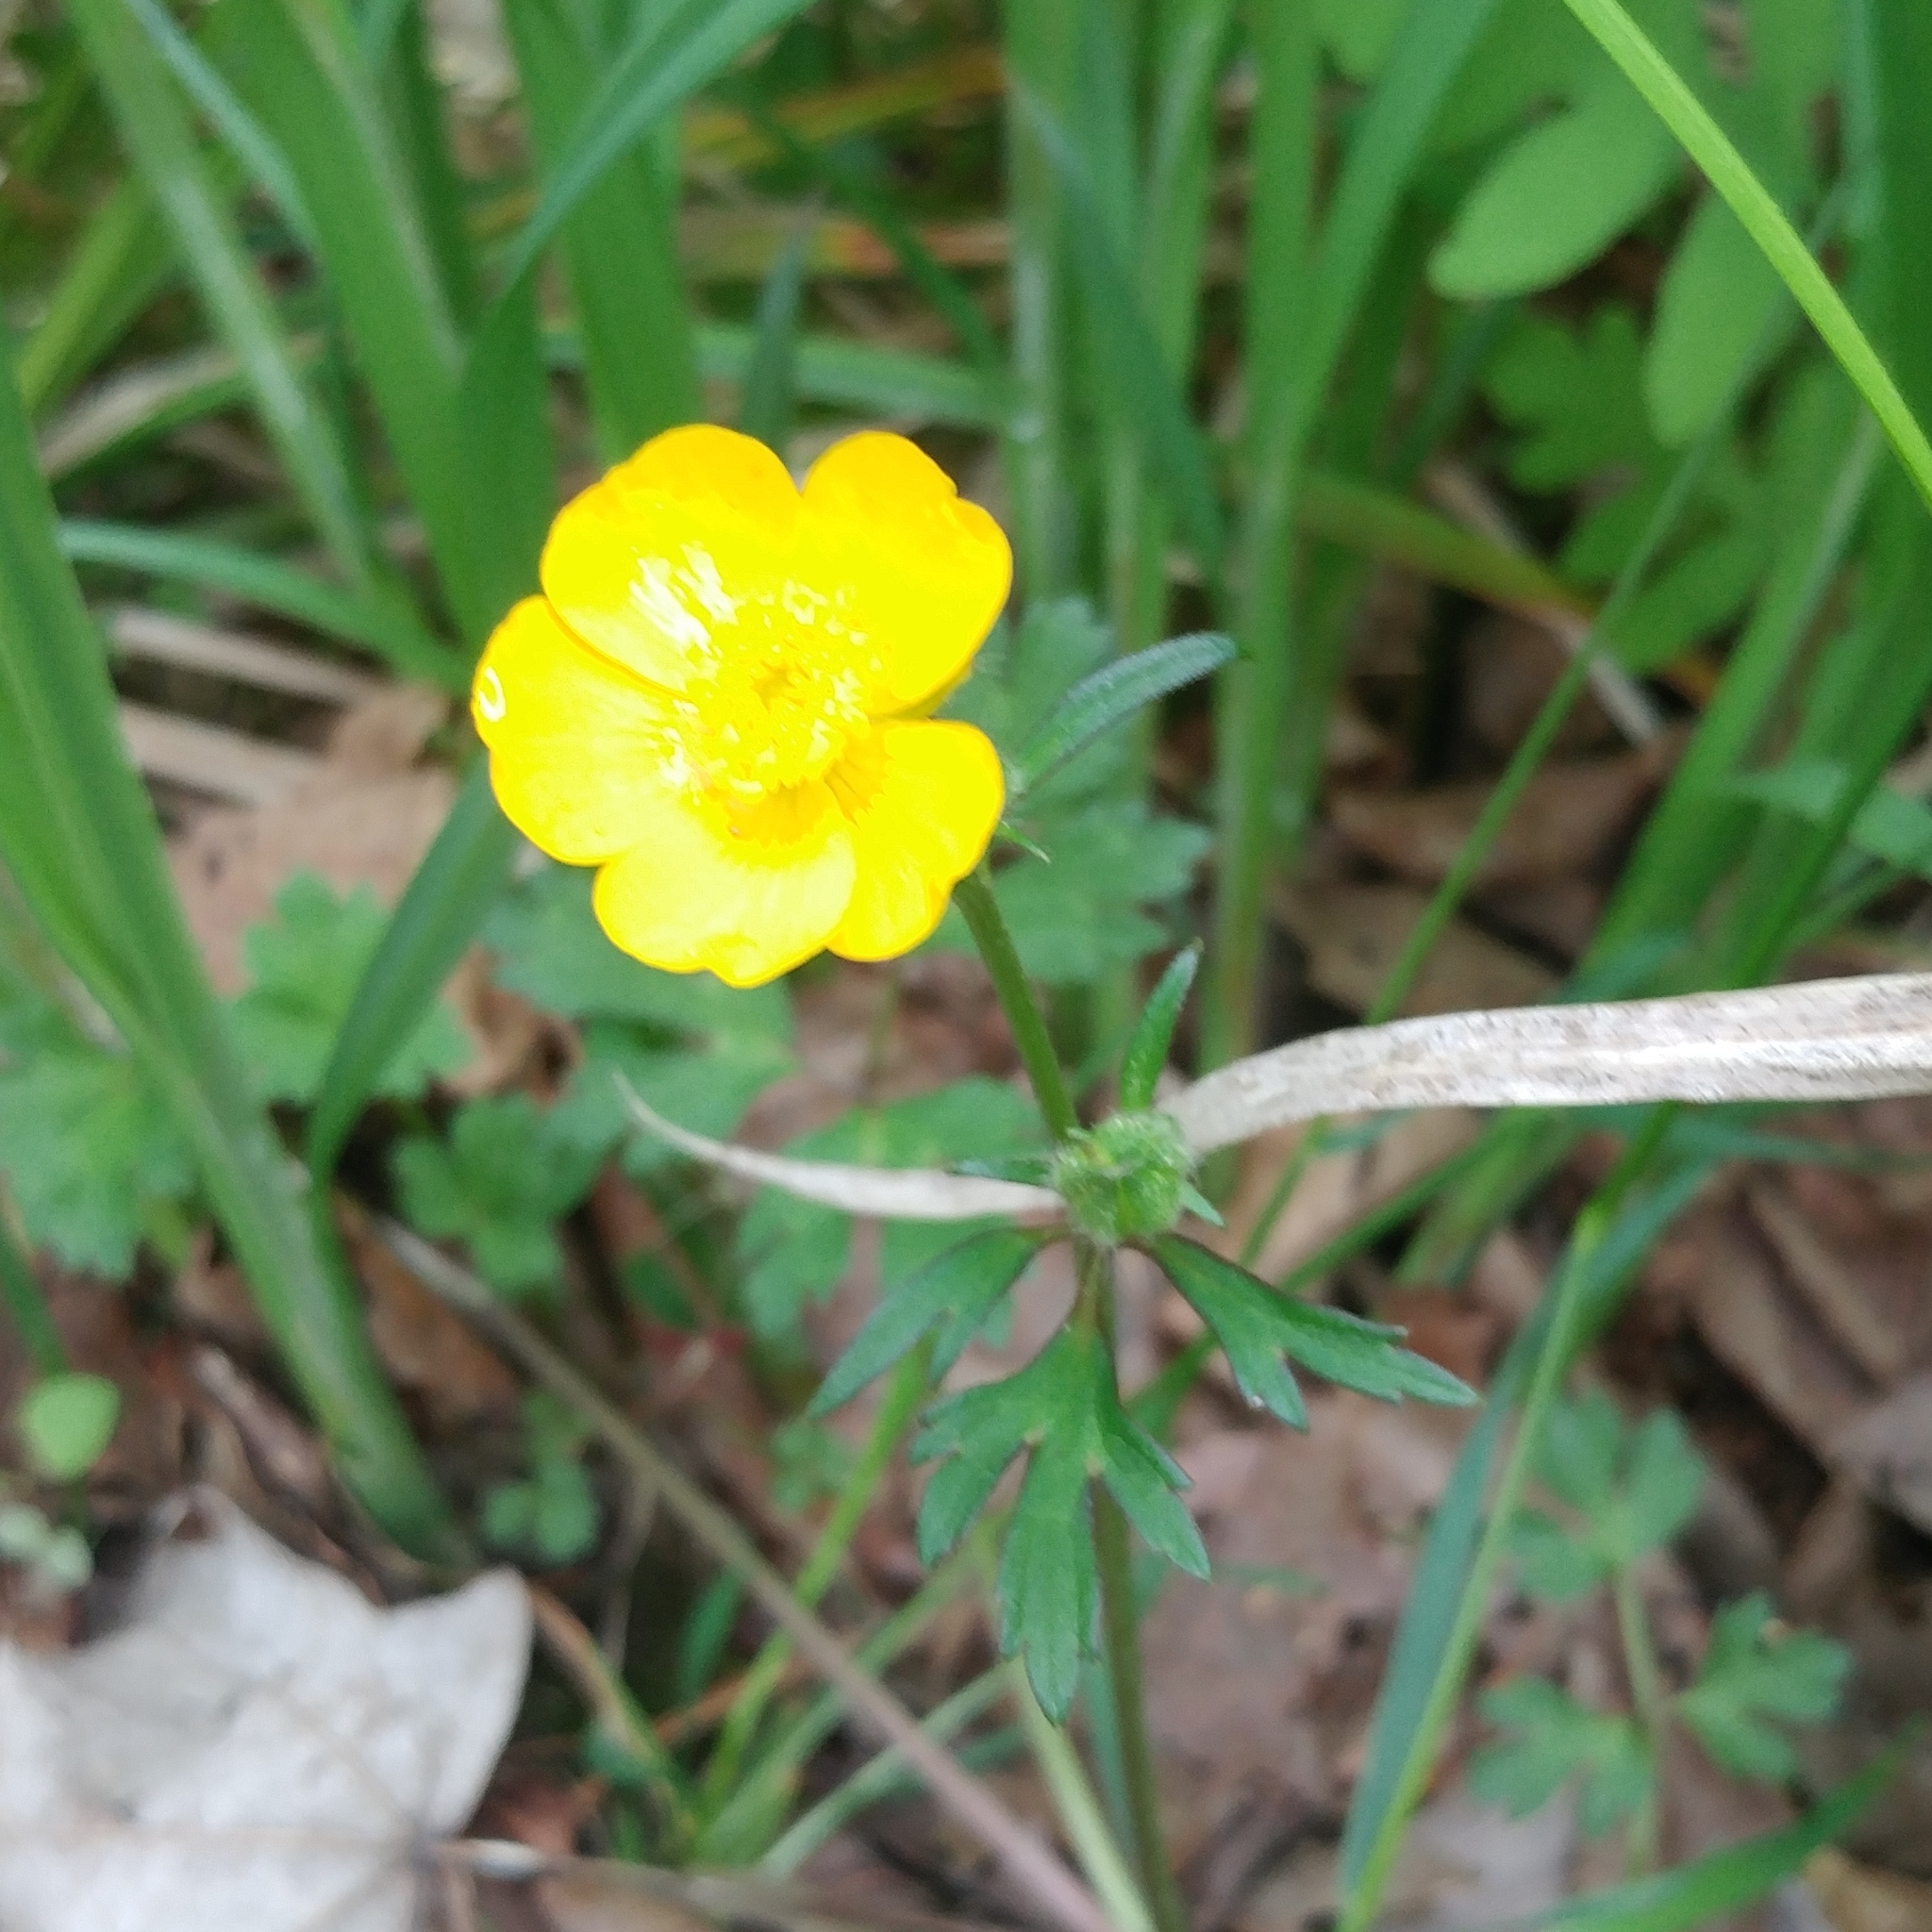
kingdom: Plantae
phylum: Tracheophyta
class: Magnoliopsida
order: Ranunculales
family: Ranunculaceae
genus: Ranunculus
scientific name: Ranunculus repens
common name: Creeping buttercup
